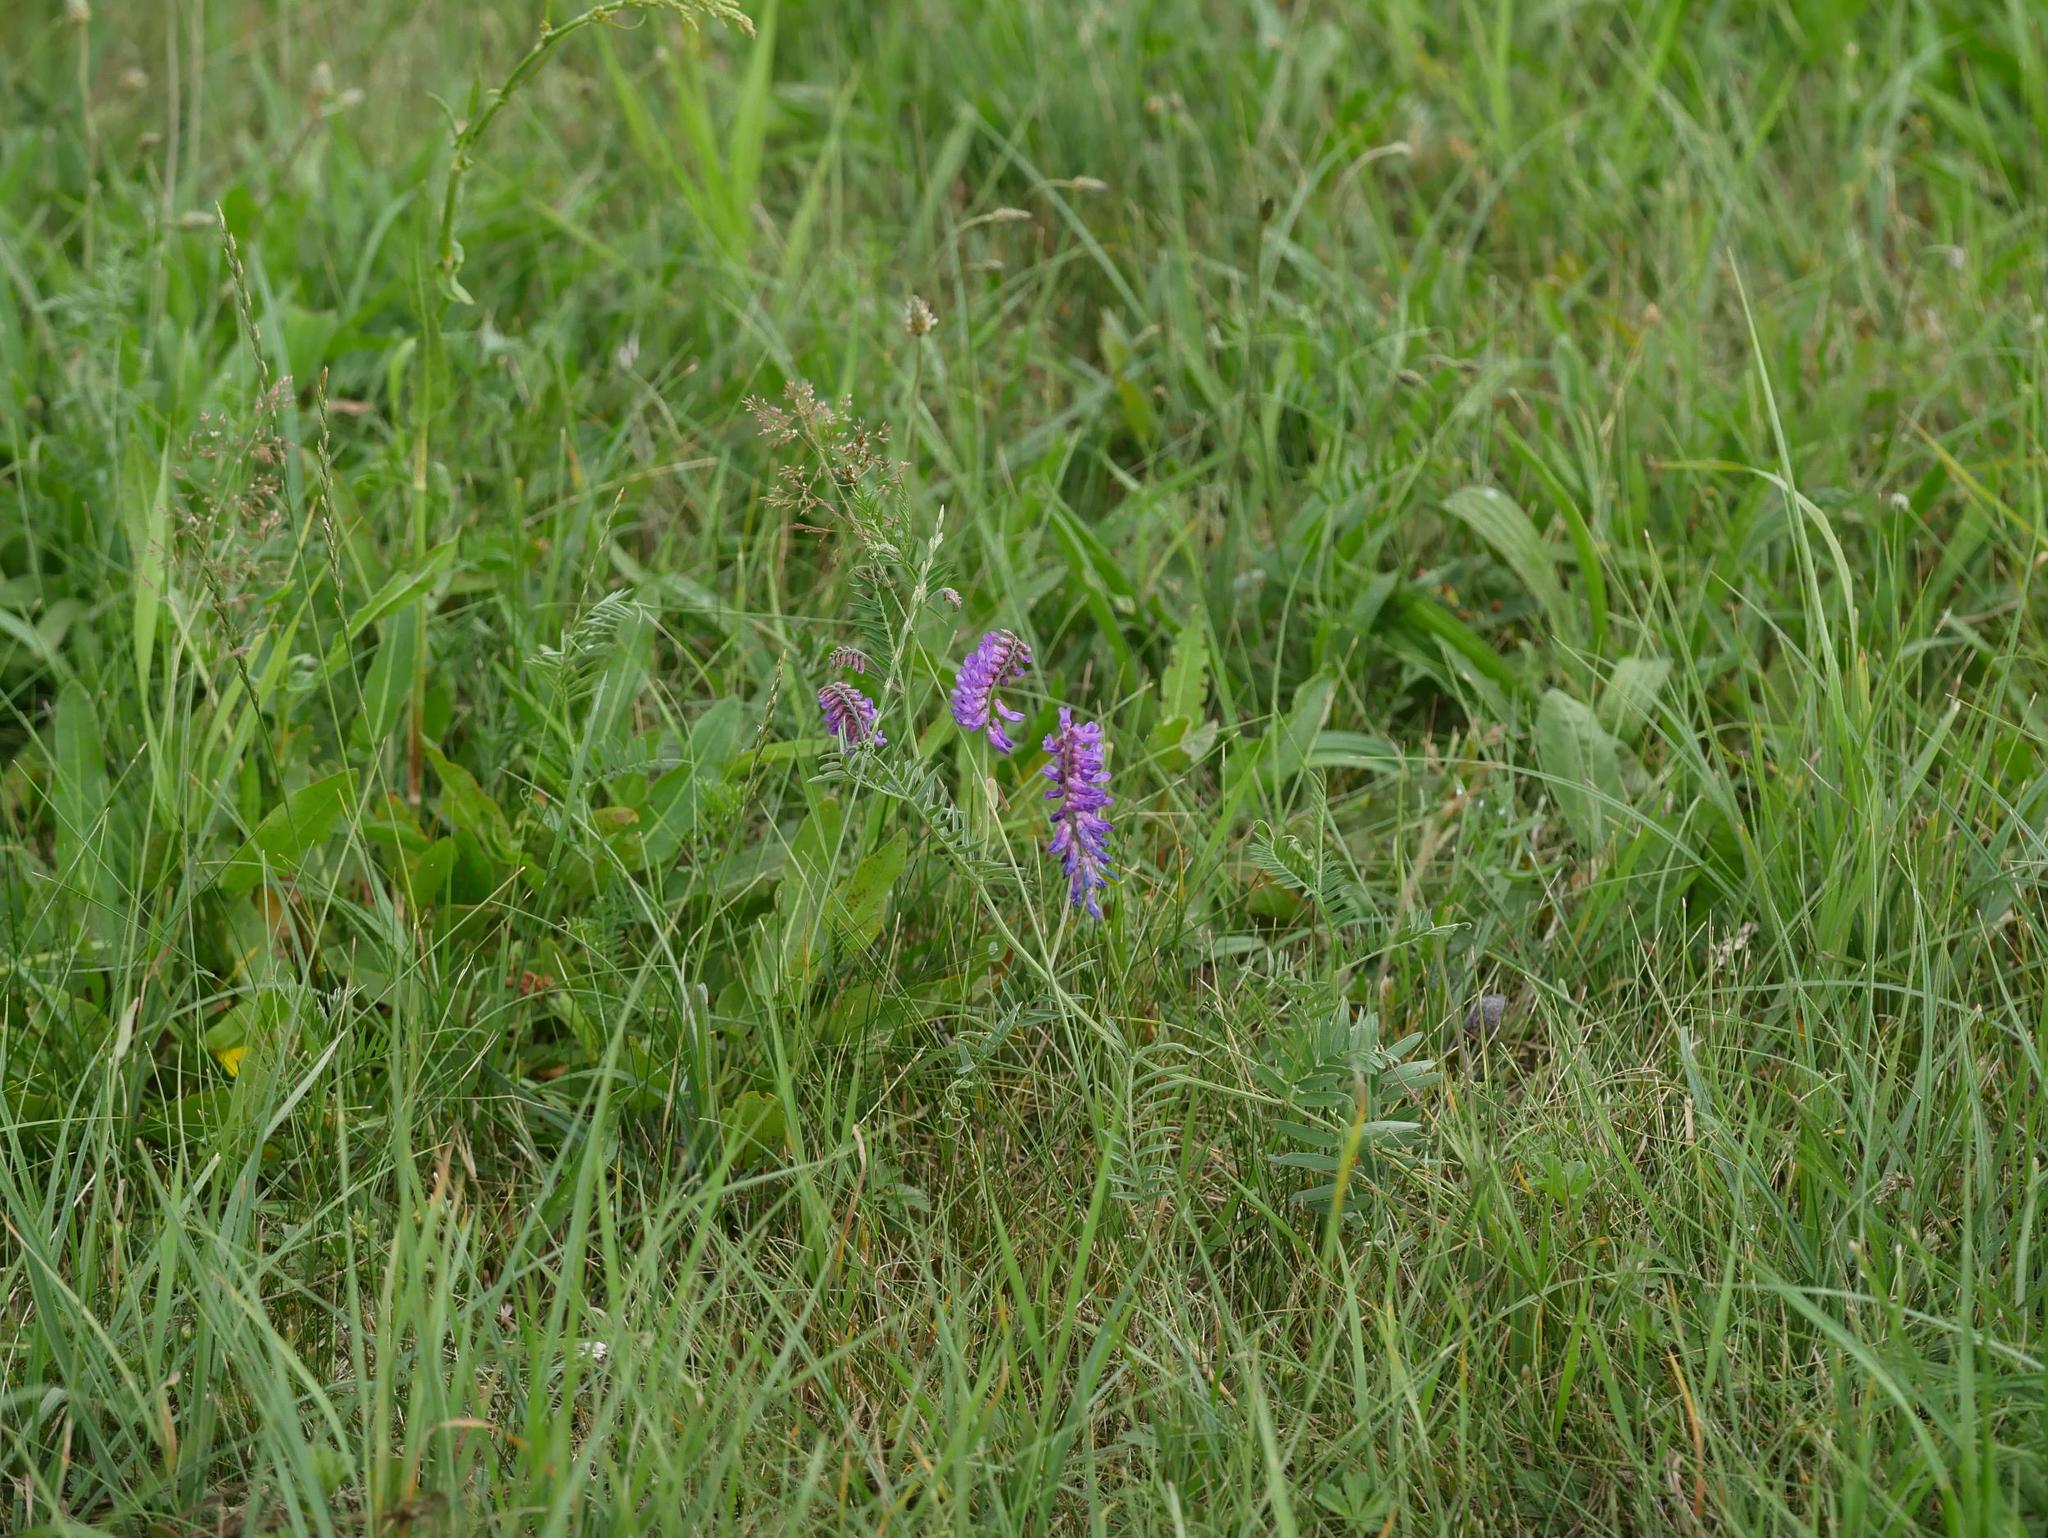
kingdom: Plantae
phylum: Tracheophyta
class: Magnoliopsida
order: Fabales
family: Fabaceae
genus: Vicia
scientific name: Vicia cracca
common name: Bird vetch
